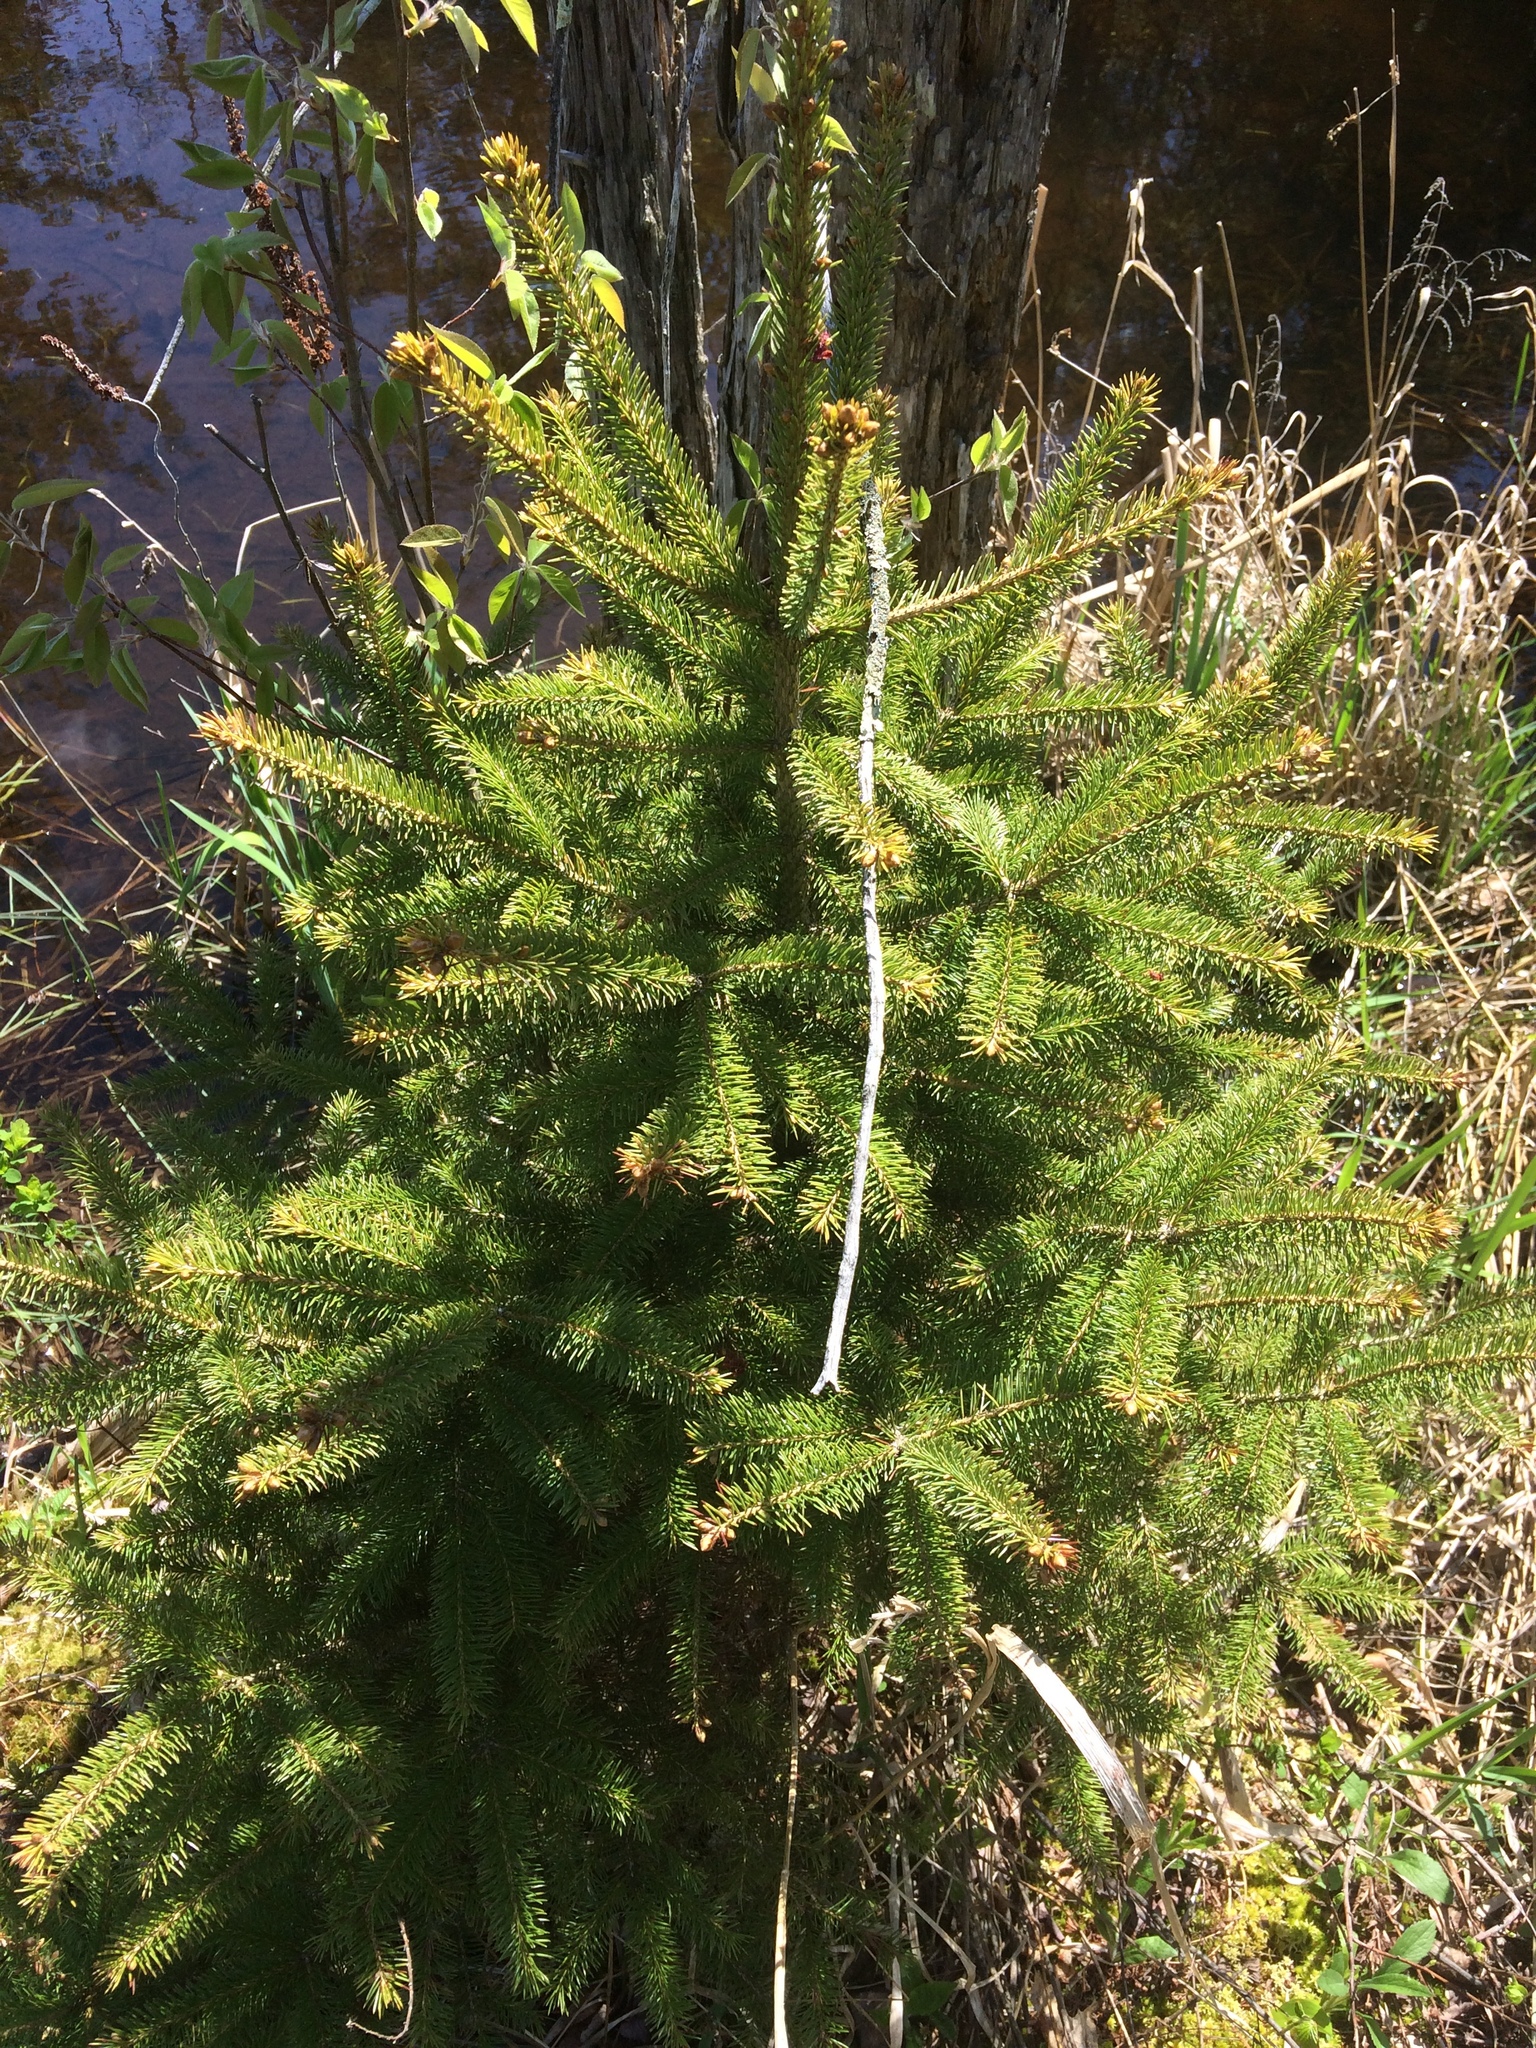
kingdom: Plantae
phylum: Tracheophyta
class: Pinopsida
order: Pinales
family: Pinaceae
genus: Abies
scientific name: Abies balsamea
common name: Balsam fir
